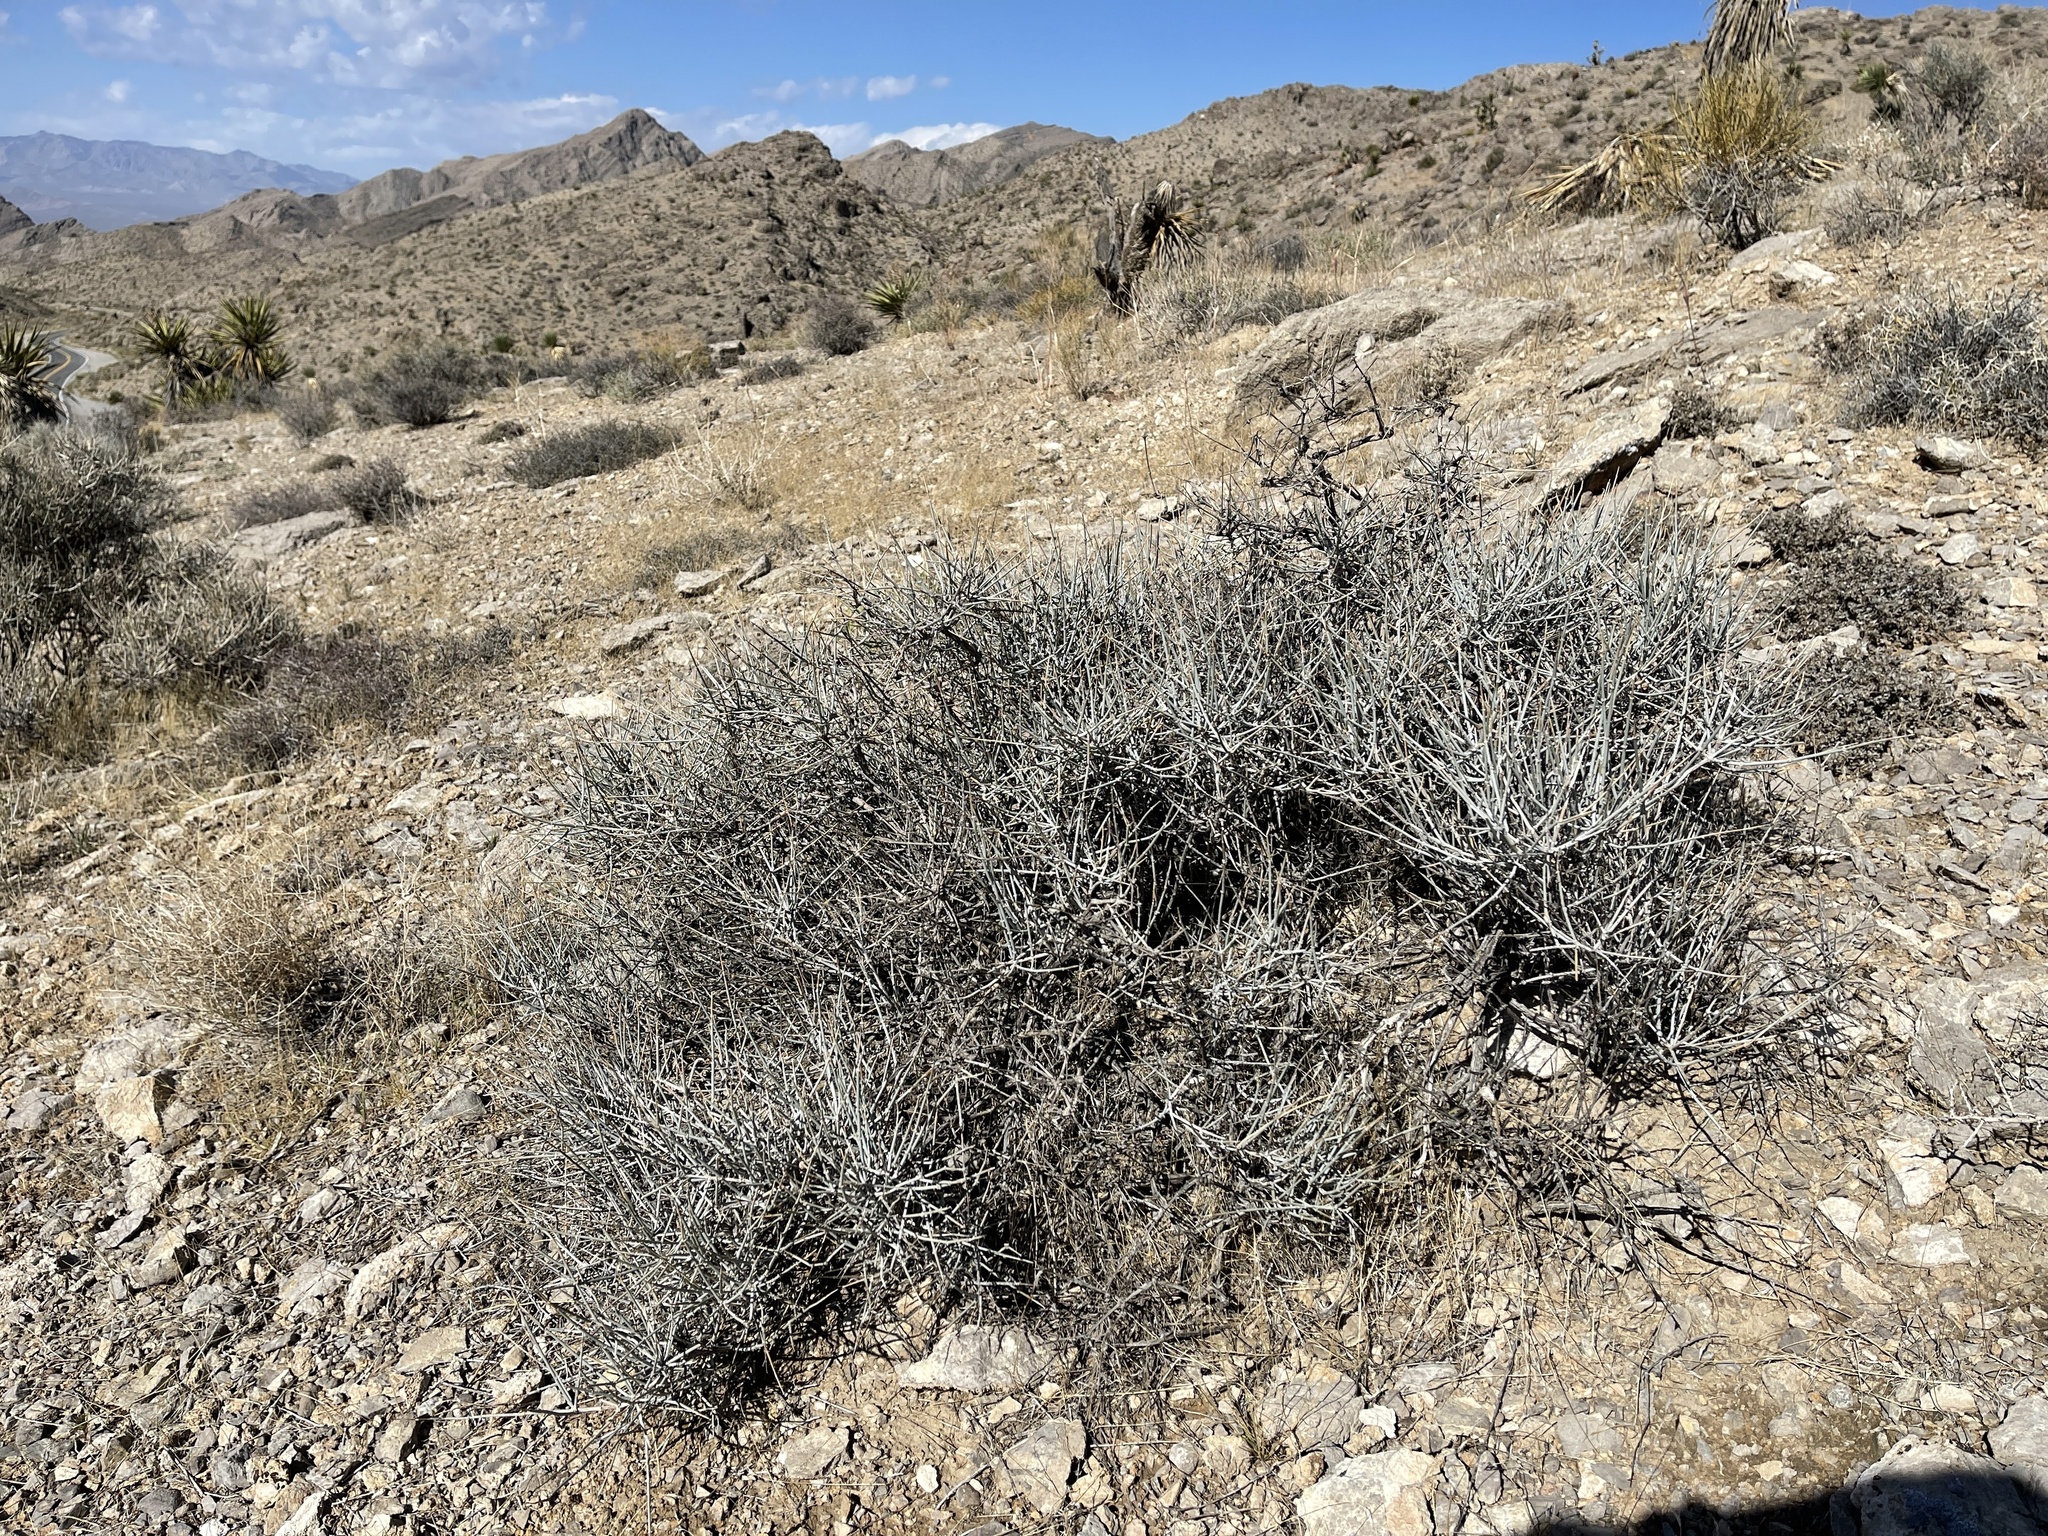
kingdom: Plantae
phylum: Tracheophyta
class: Gnetopsida
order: Ephedrales
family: Ephedraceae
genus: Ephedra
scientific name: Ephedra nevadensis
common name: Gray ephedra
